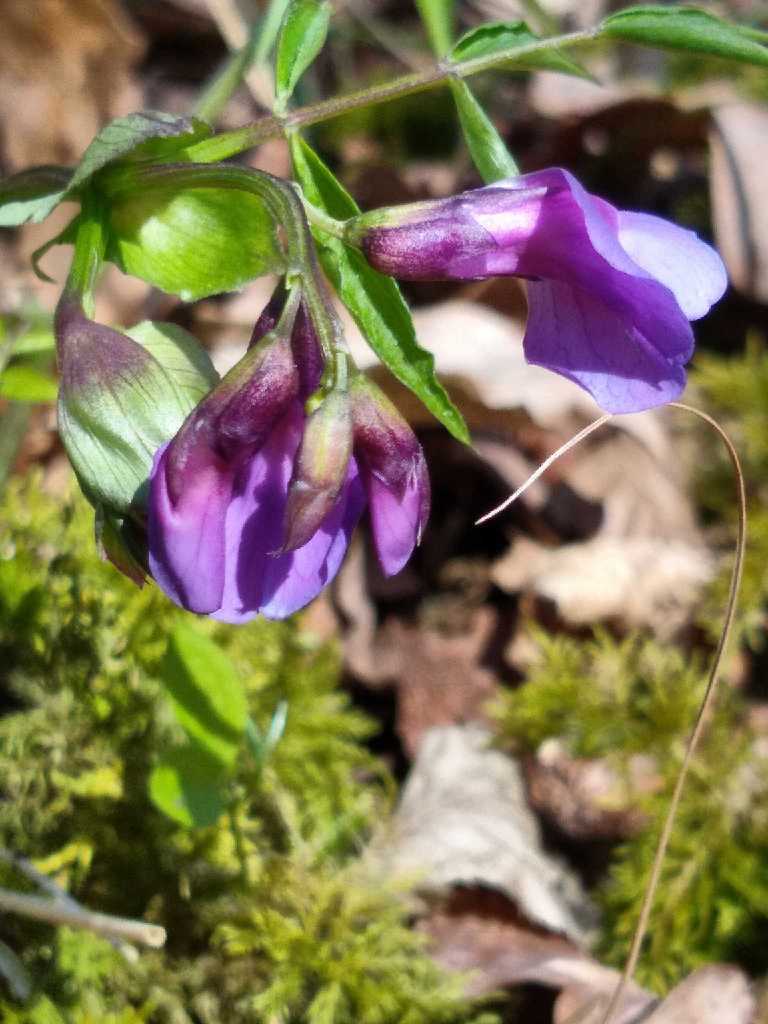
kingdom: Plantae
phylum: Tracheophyta
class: Magnoliopsida
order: Fabales
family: Fabaceae
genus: Lathyrus
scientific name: Lathyrus vernus
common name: Spring pea
